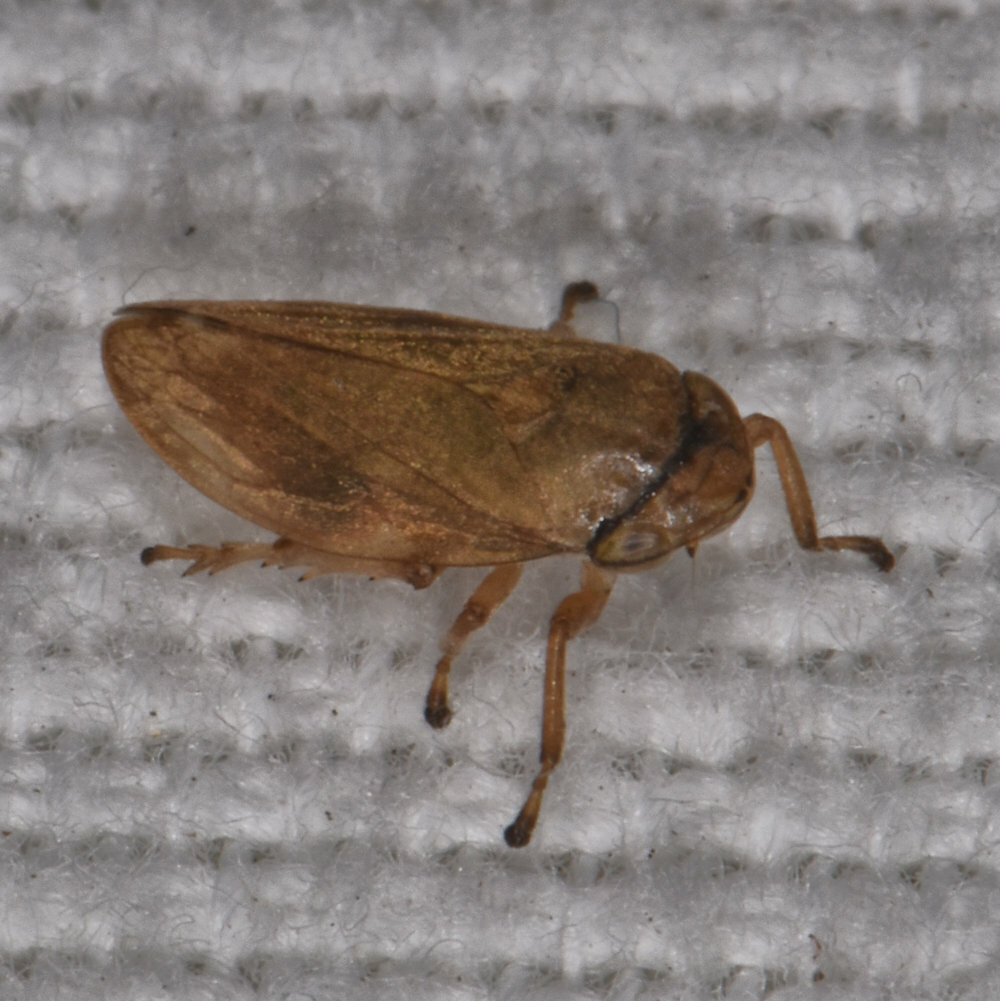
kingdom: Animalia
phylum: Arthropoda
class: Insecta
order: Hemiptera
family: Aphrophoridae
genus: Philaenus
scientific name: Philaenus spumarius
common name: Meadow spittlebug
